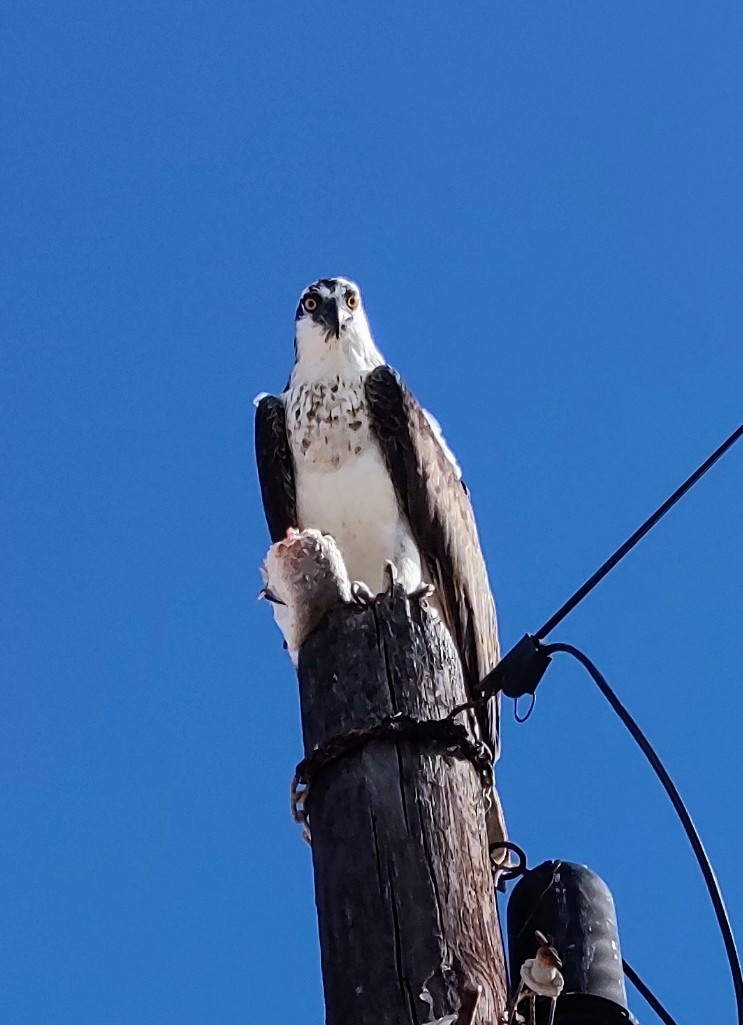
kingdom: Animalia
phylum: Chordata
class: Aves
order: Accipitriformes
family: Pandionidae
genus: Pandion
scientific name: Pandion haliaetus
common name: Osprey
